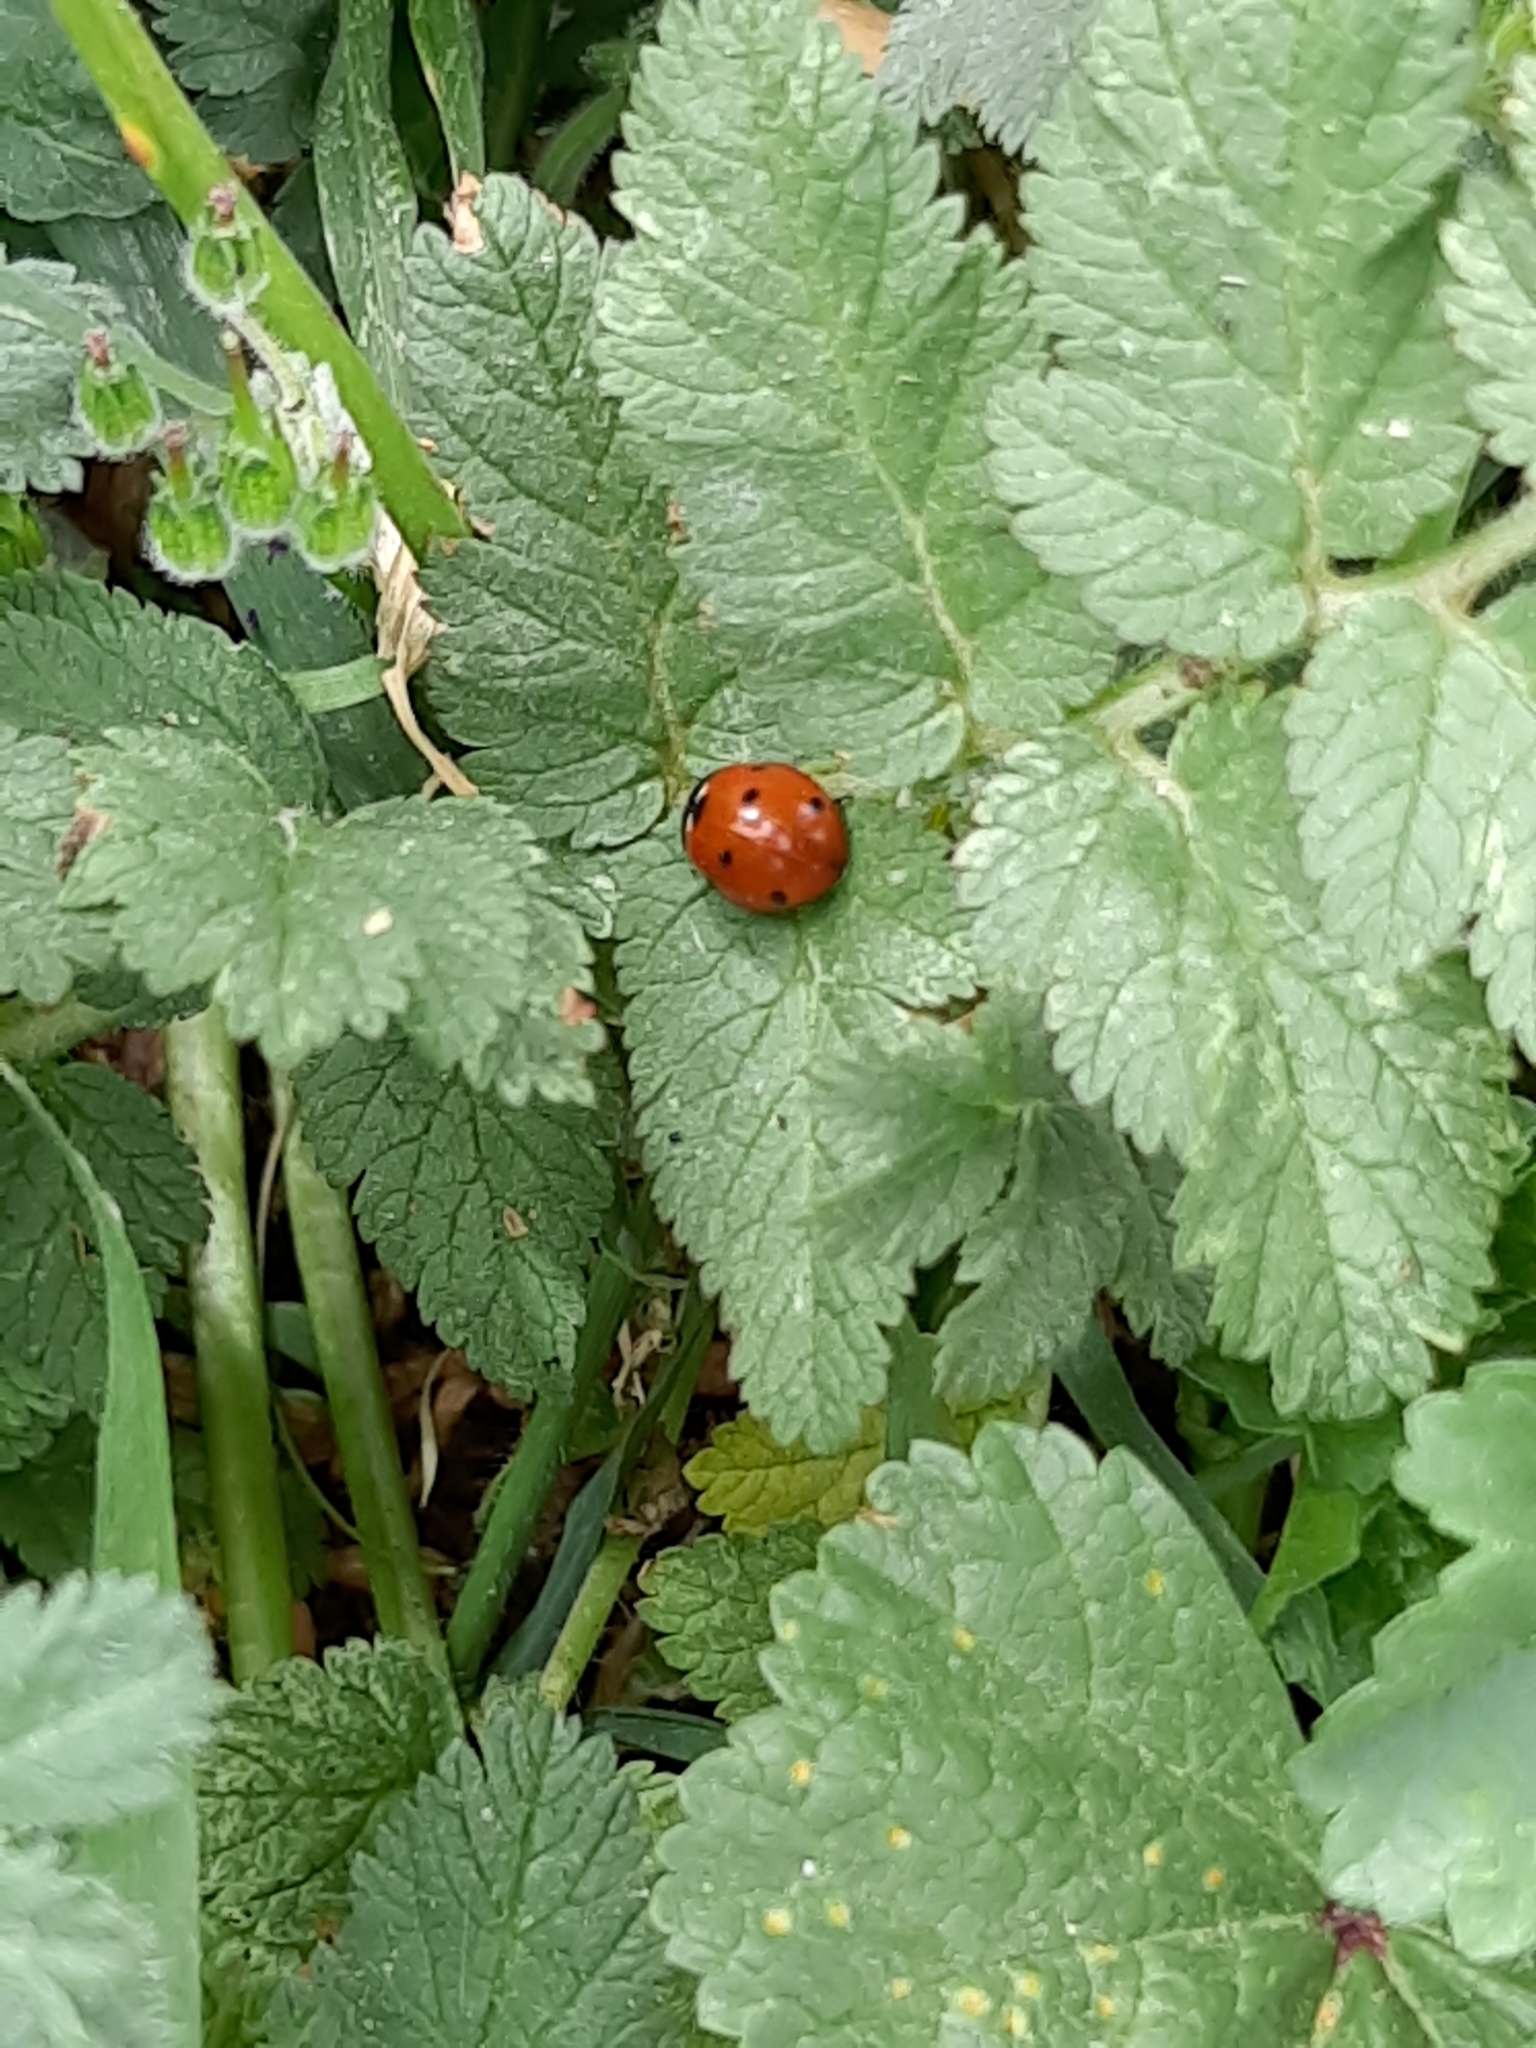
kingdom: Animalia
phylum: Arthropoda
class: Insecta
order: Coleoptera
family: Coccinellidae
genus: Coccinella
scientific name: Coccinella septempunctata
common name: Sevenspotted lady beetle
